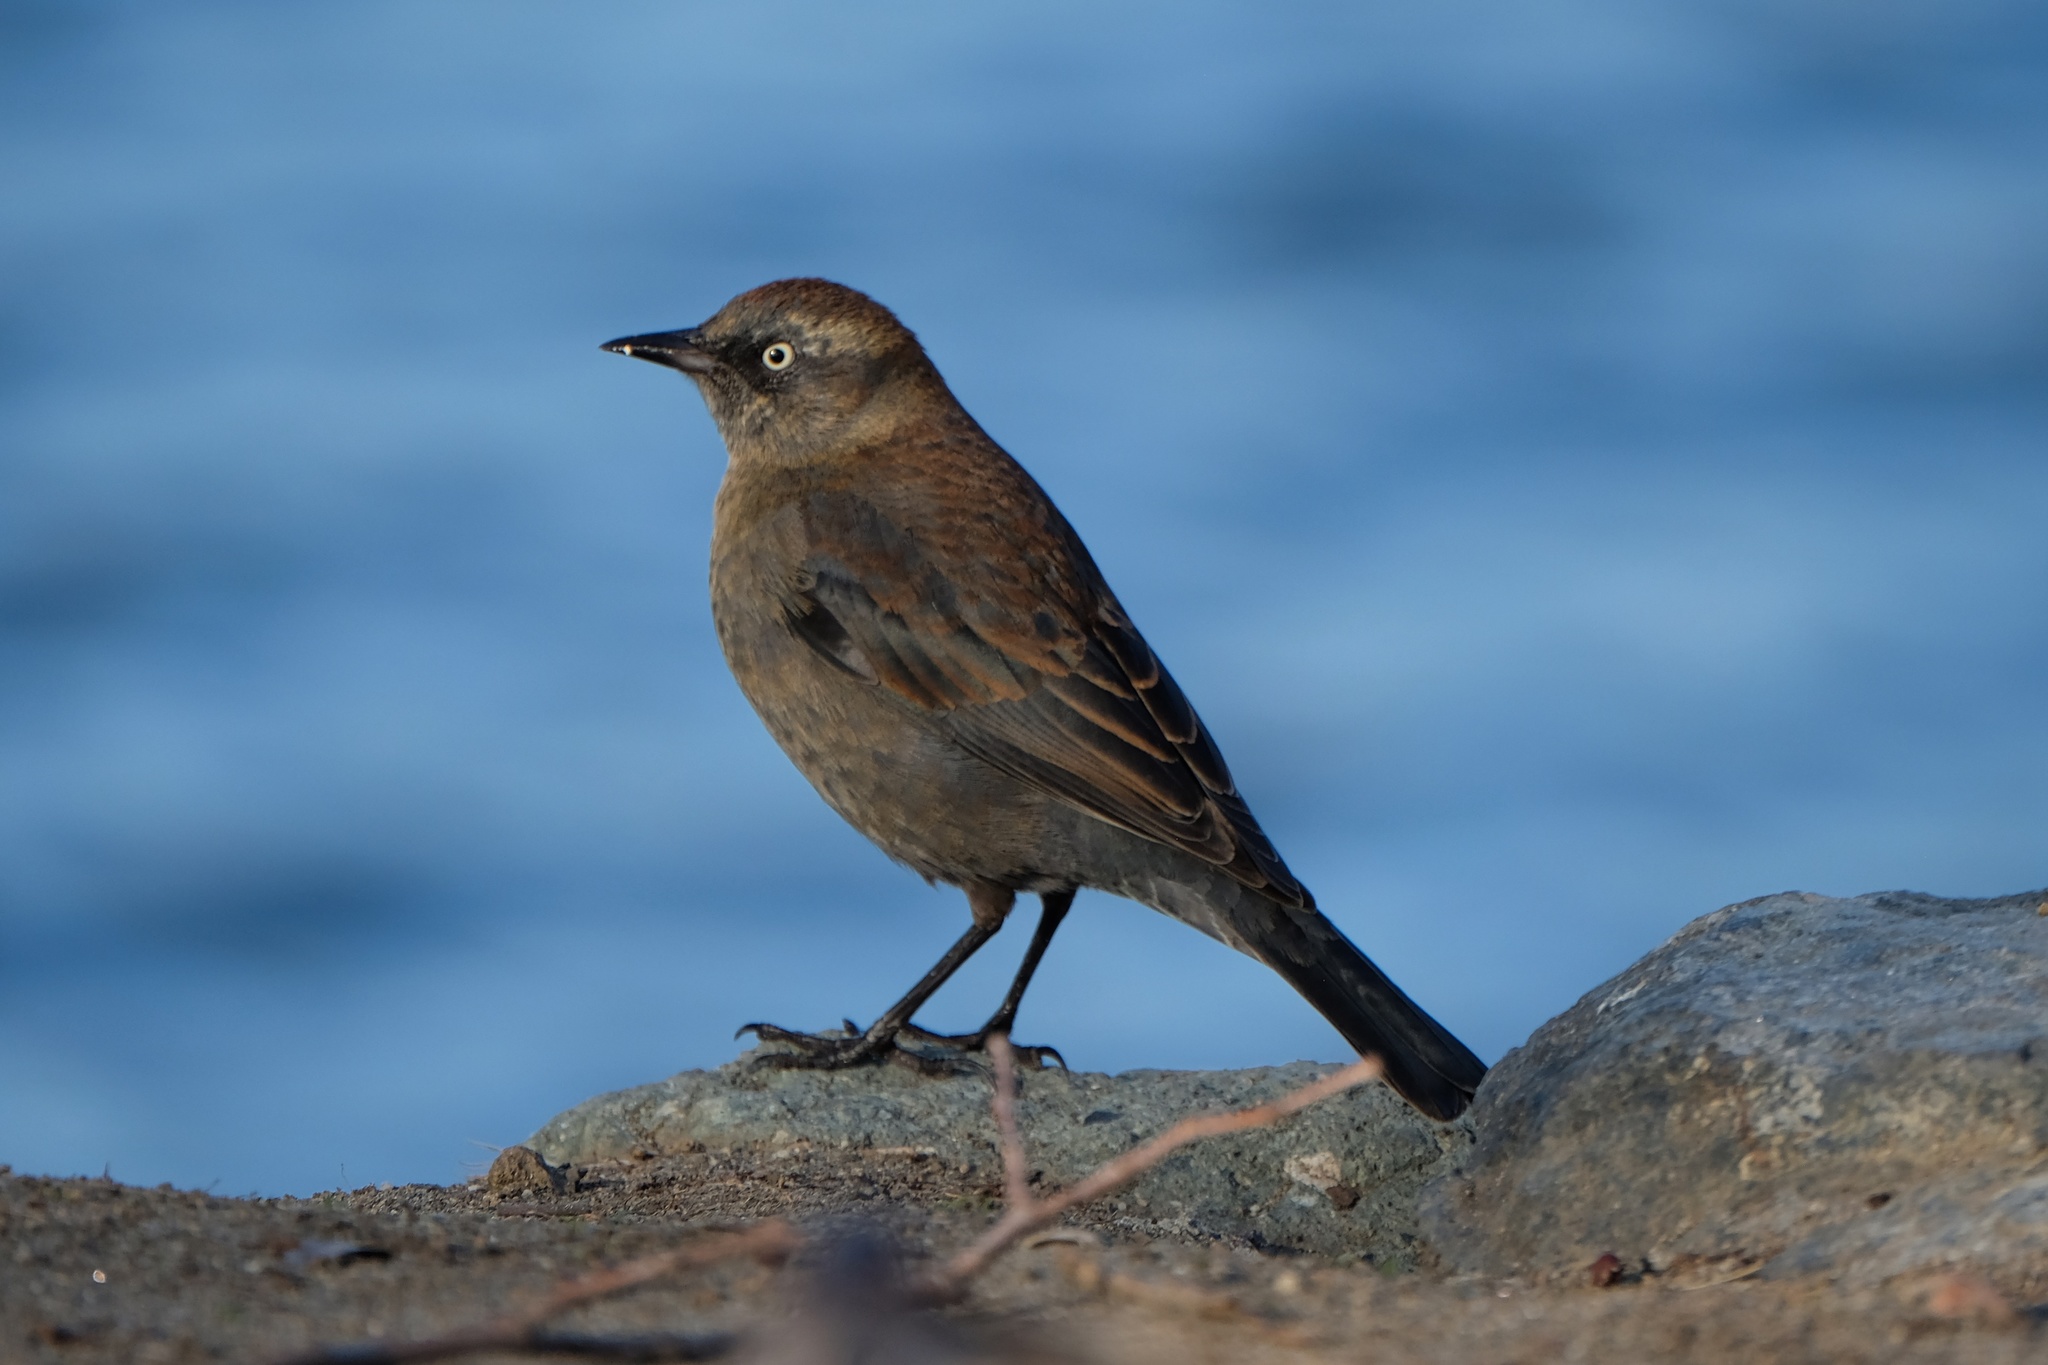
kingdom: Animalia
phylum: Chordata
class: Aves
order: Passeriformes
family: Icteridae
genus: Euphagus
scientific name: Euphagus carolinus
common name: Rusty blackbird
